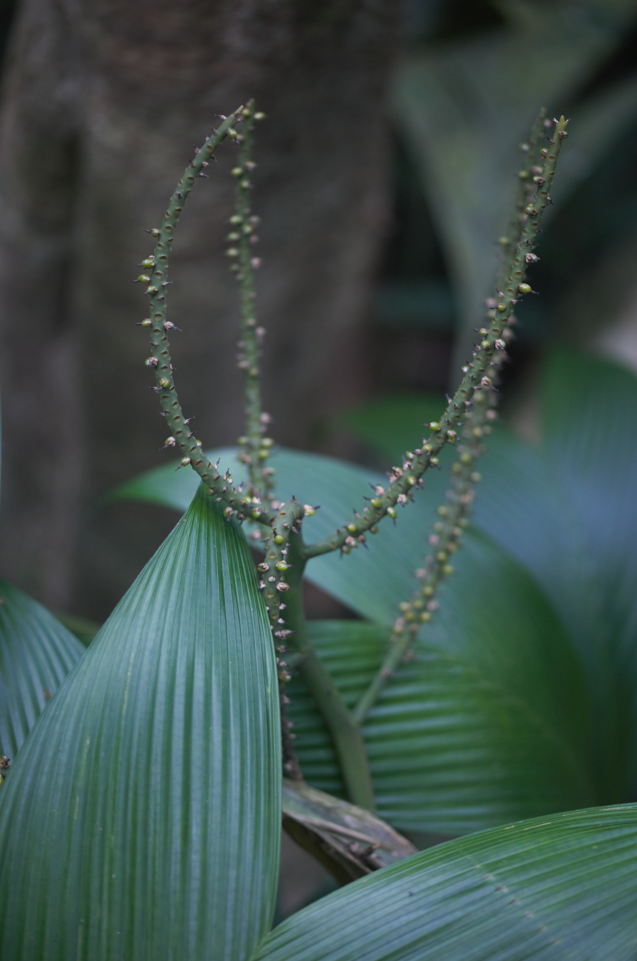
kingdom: Plantae
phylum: Tracheophyta
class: Liliopsida
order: Arecales
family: Arecaceae
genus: Geonoma
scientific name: Geonoma baculifera
